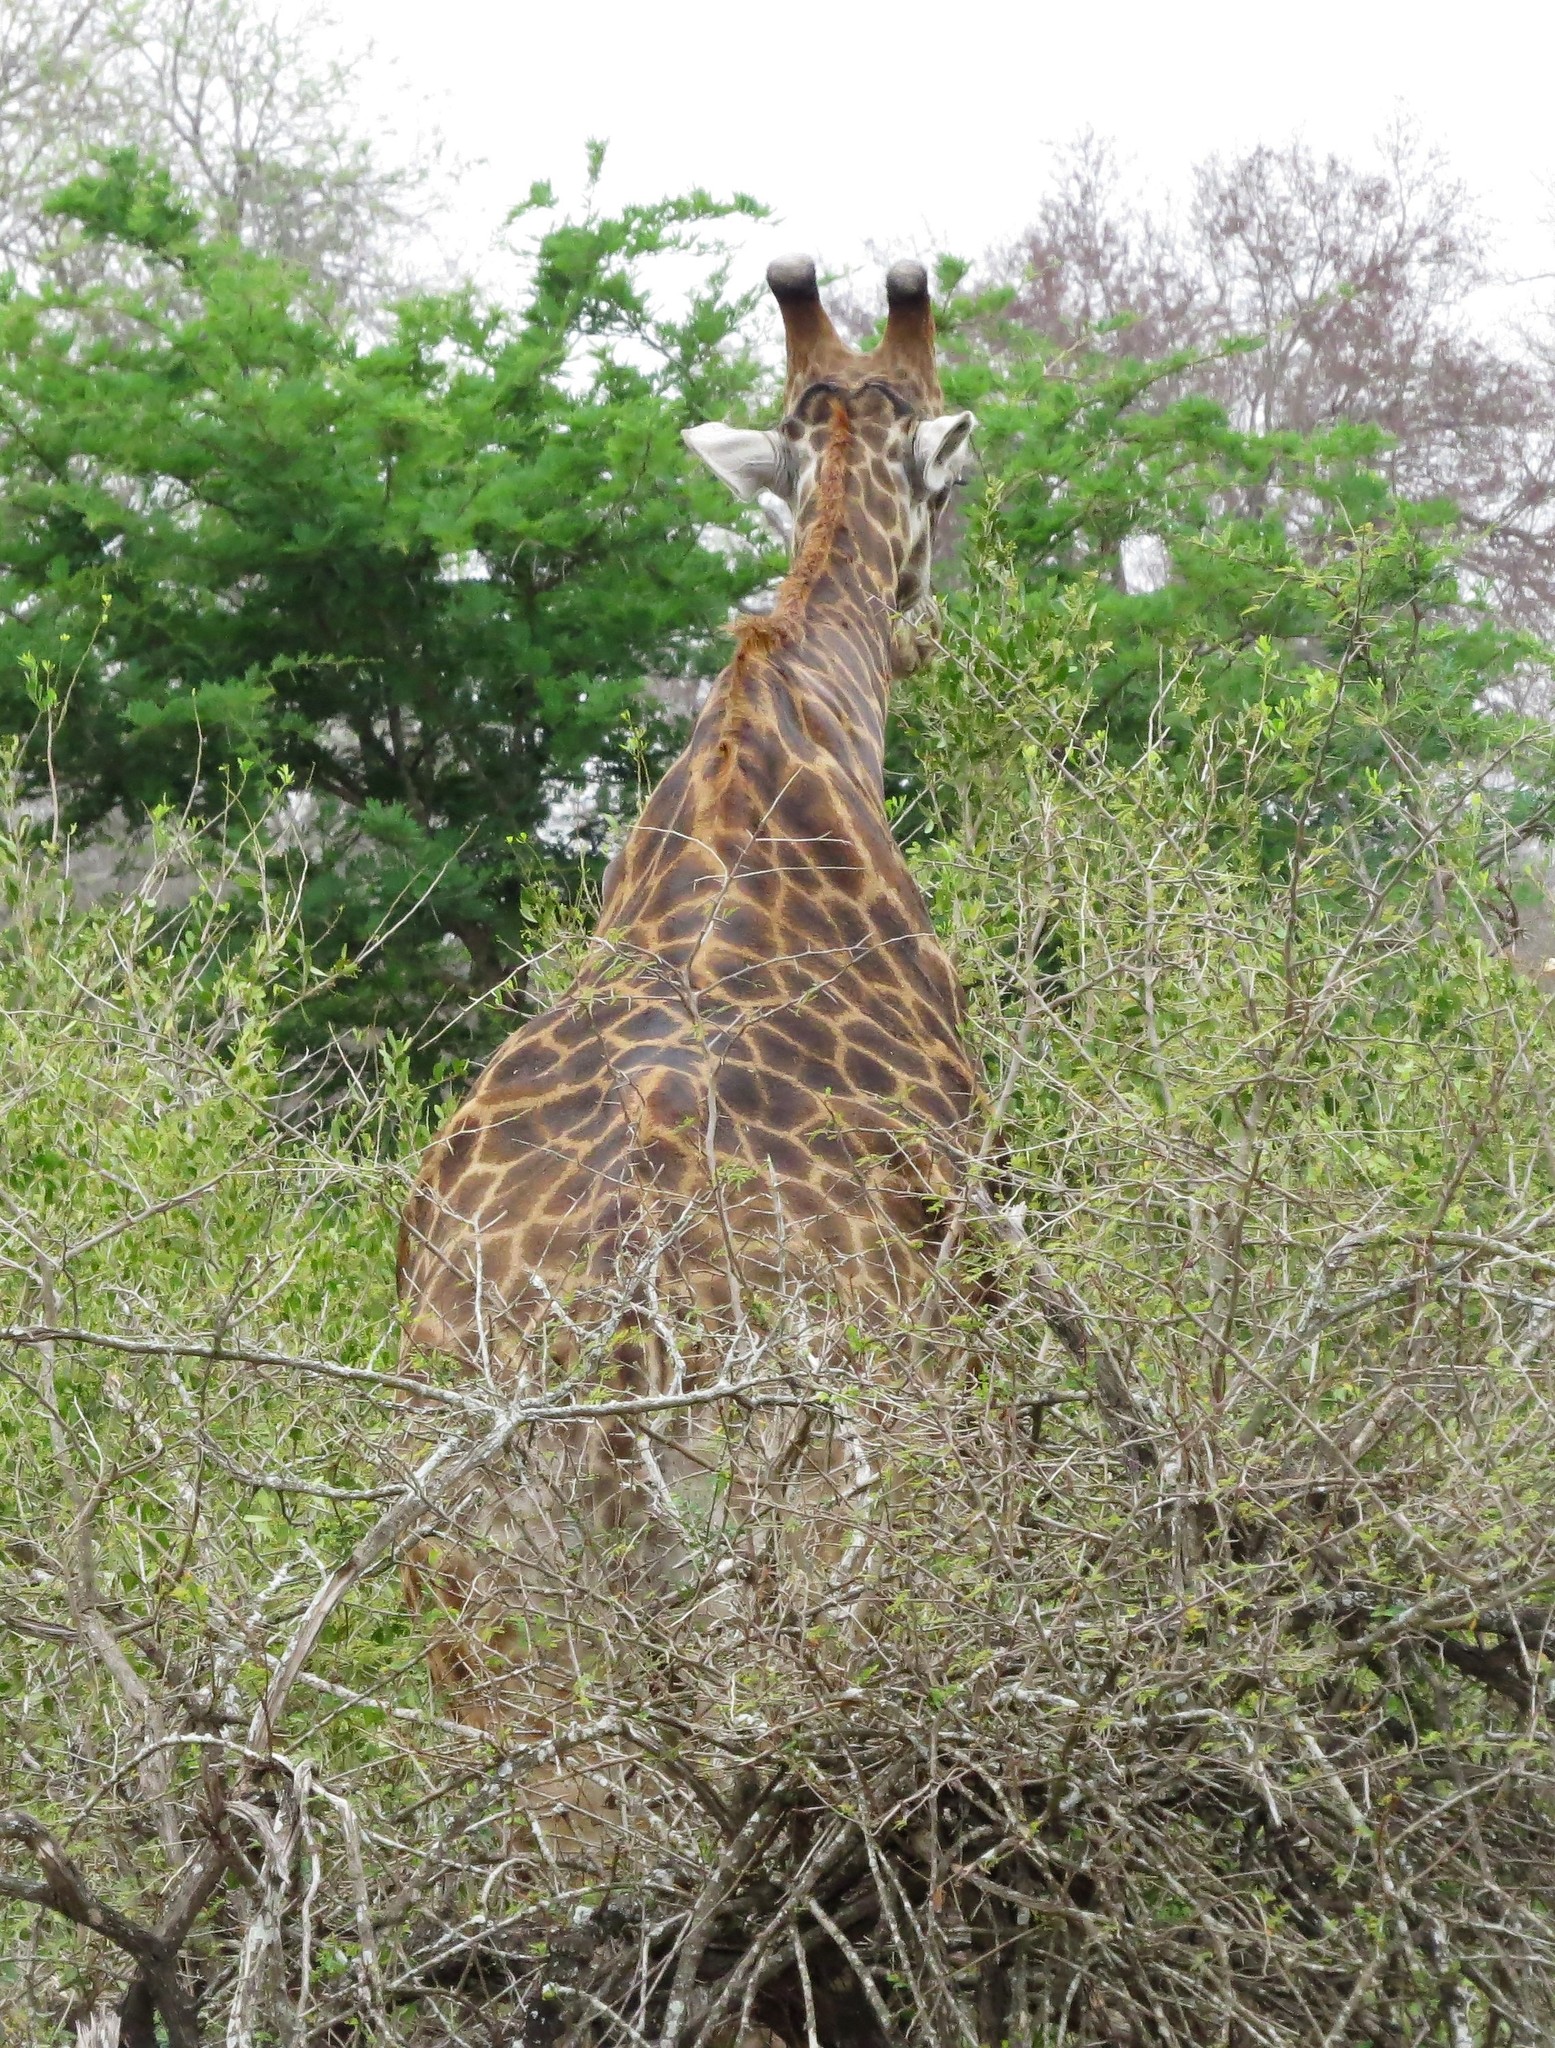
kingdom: Animalia
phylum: Chordata
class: Mammalia
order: Artiodactyla
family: Giraffidae
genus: Giraffa
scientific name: Giraffa giraffa
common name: Southern giraffe
